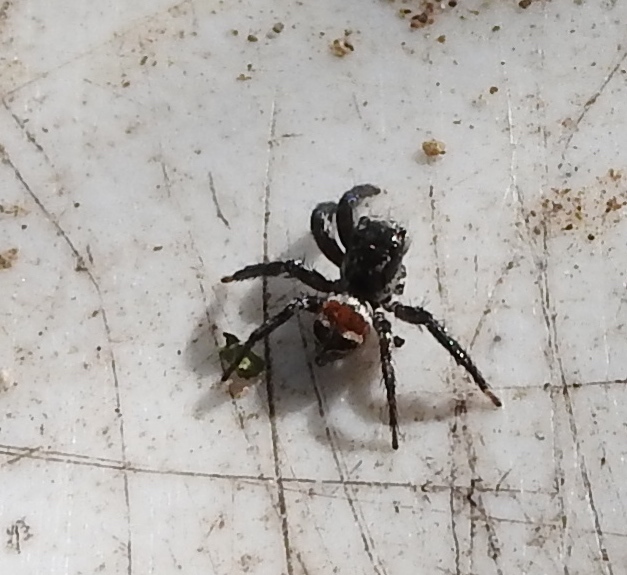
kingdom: Animalia
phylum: Arthropoda
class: Arachnida
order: Araneae
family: Salticidae
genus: Corythalia
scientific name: Corythalia
